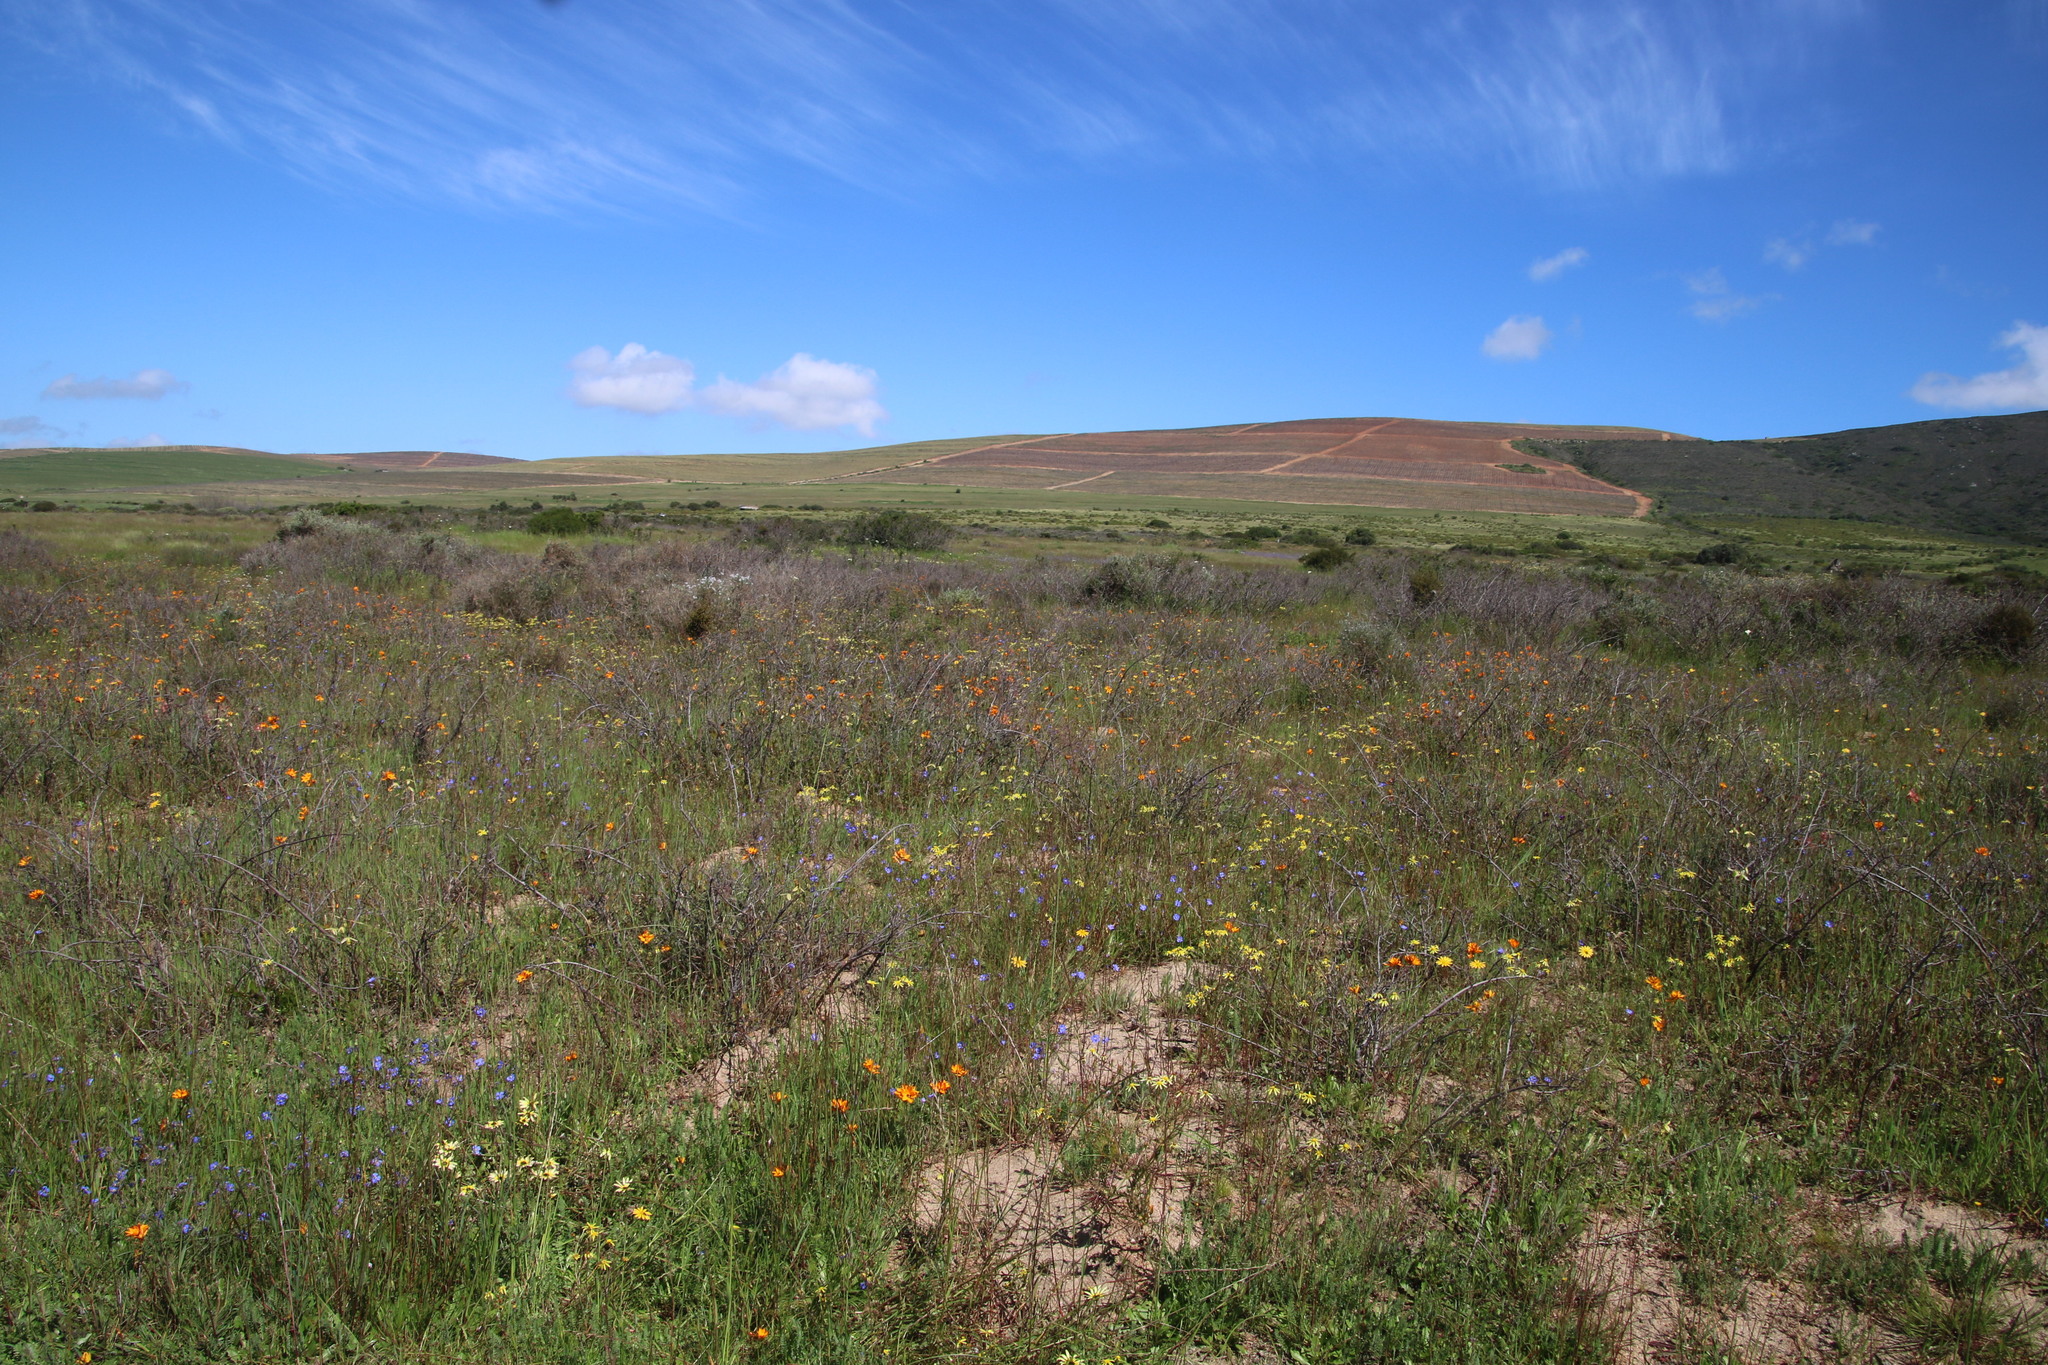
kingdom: Plantae
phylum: Tracheophyta
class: Liliopsida
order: Asparagales
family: Iridaceae
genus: Ixia
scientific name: Ixia maculata
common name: Spotted african cornlily
